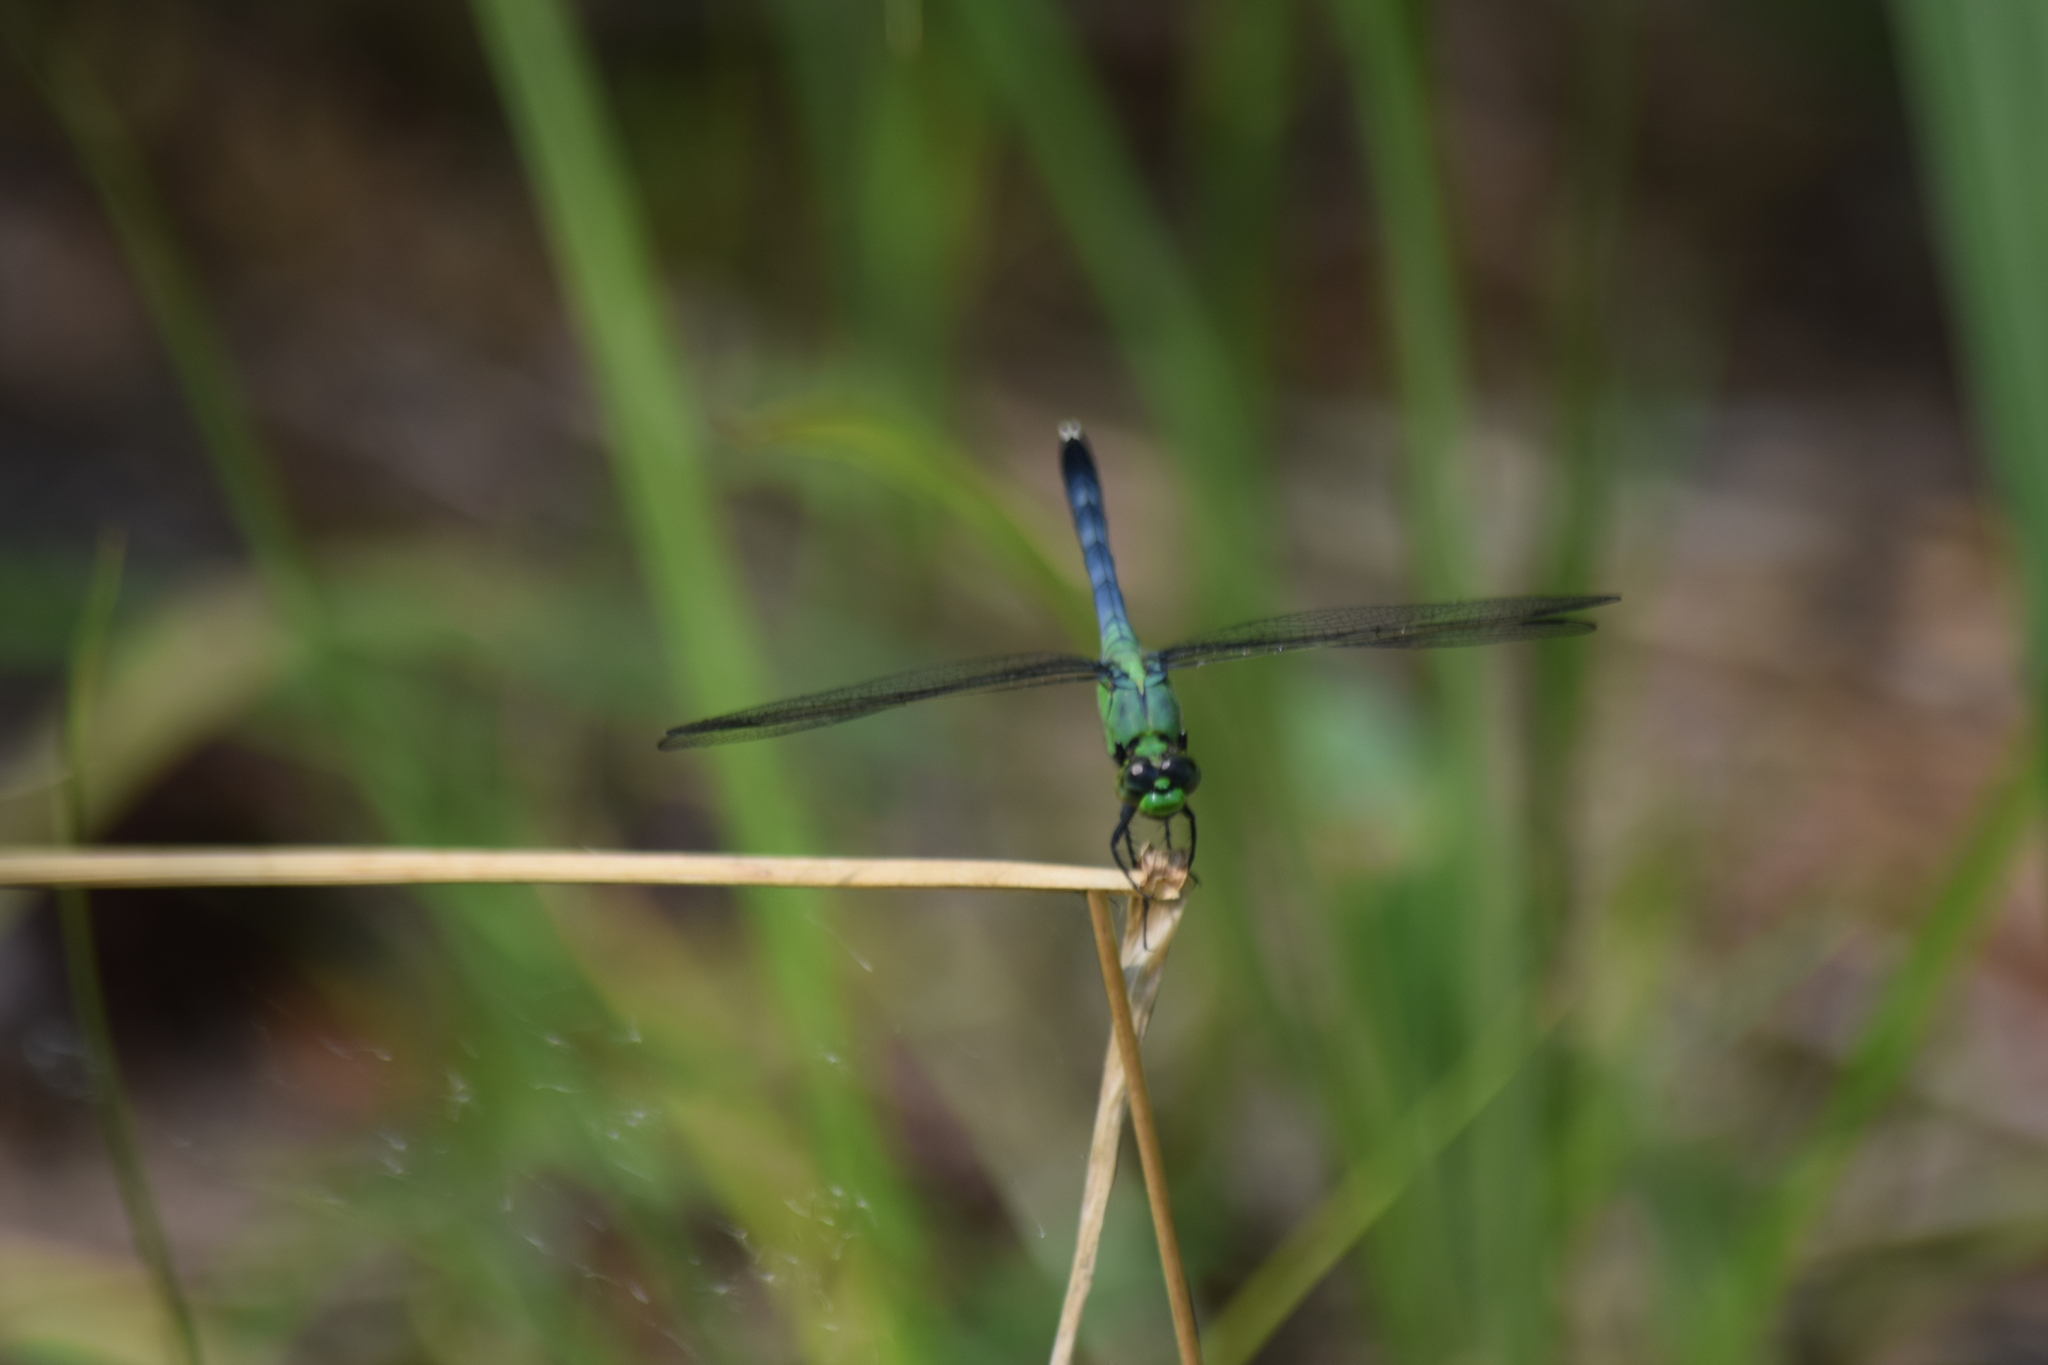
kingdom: Animalia
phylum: Arthropoda
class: Insecta
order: Odonata
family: Libellulidae
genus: Erythemis
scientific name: Erythemis simplicicollis
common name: Eastern pondhawk
